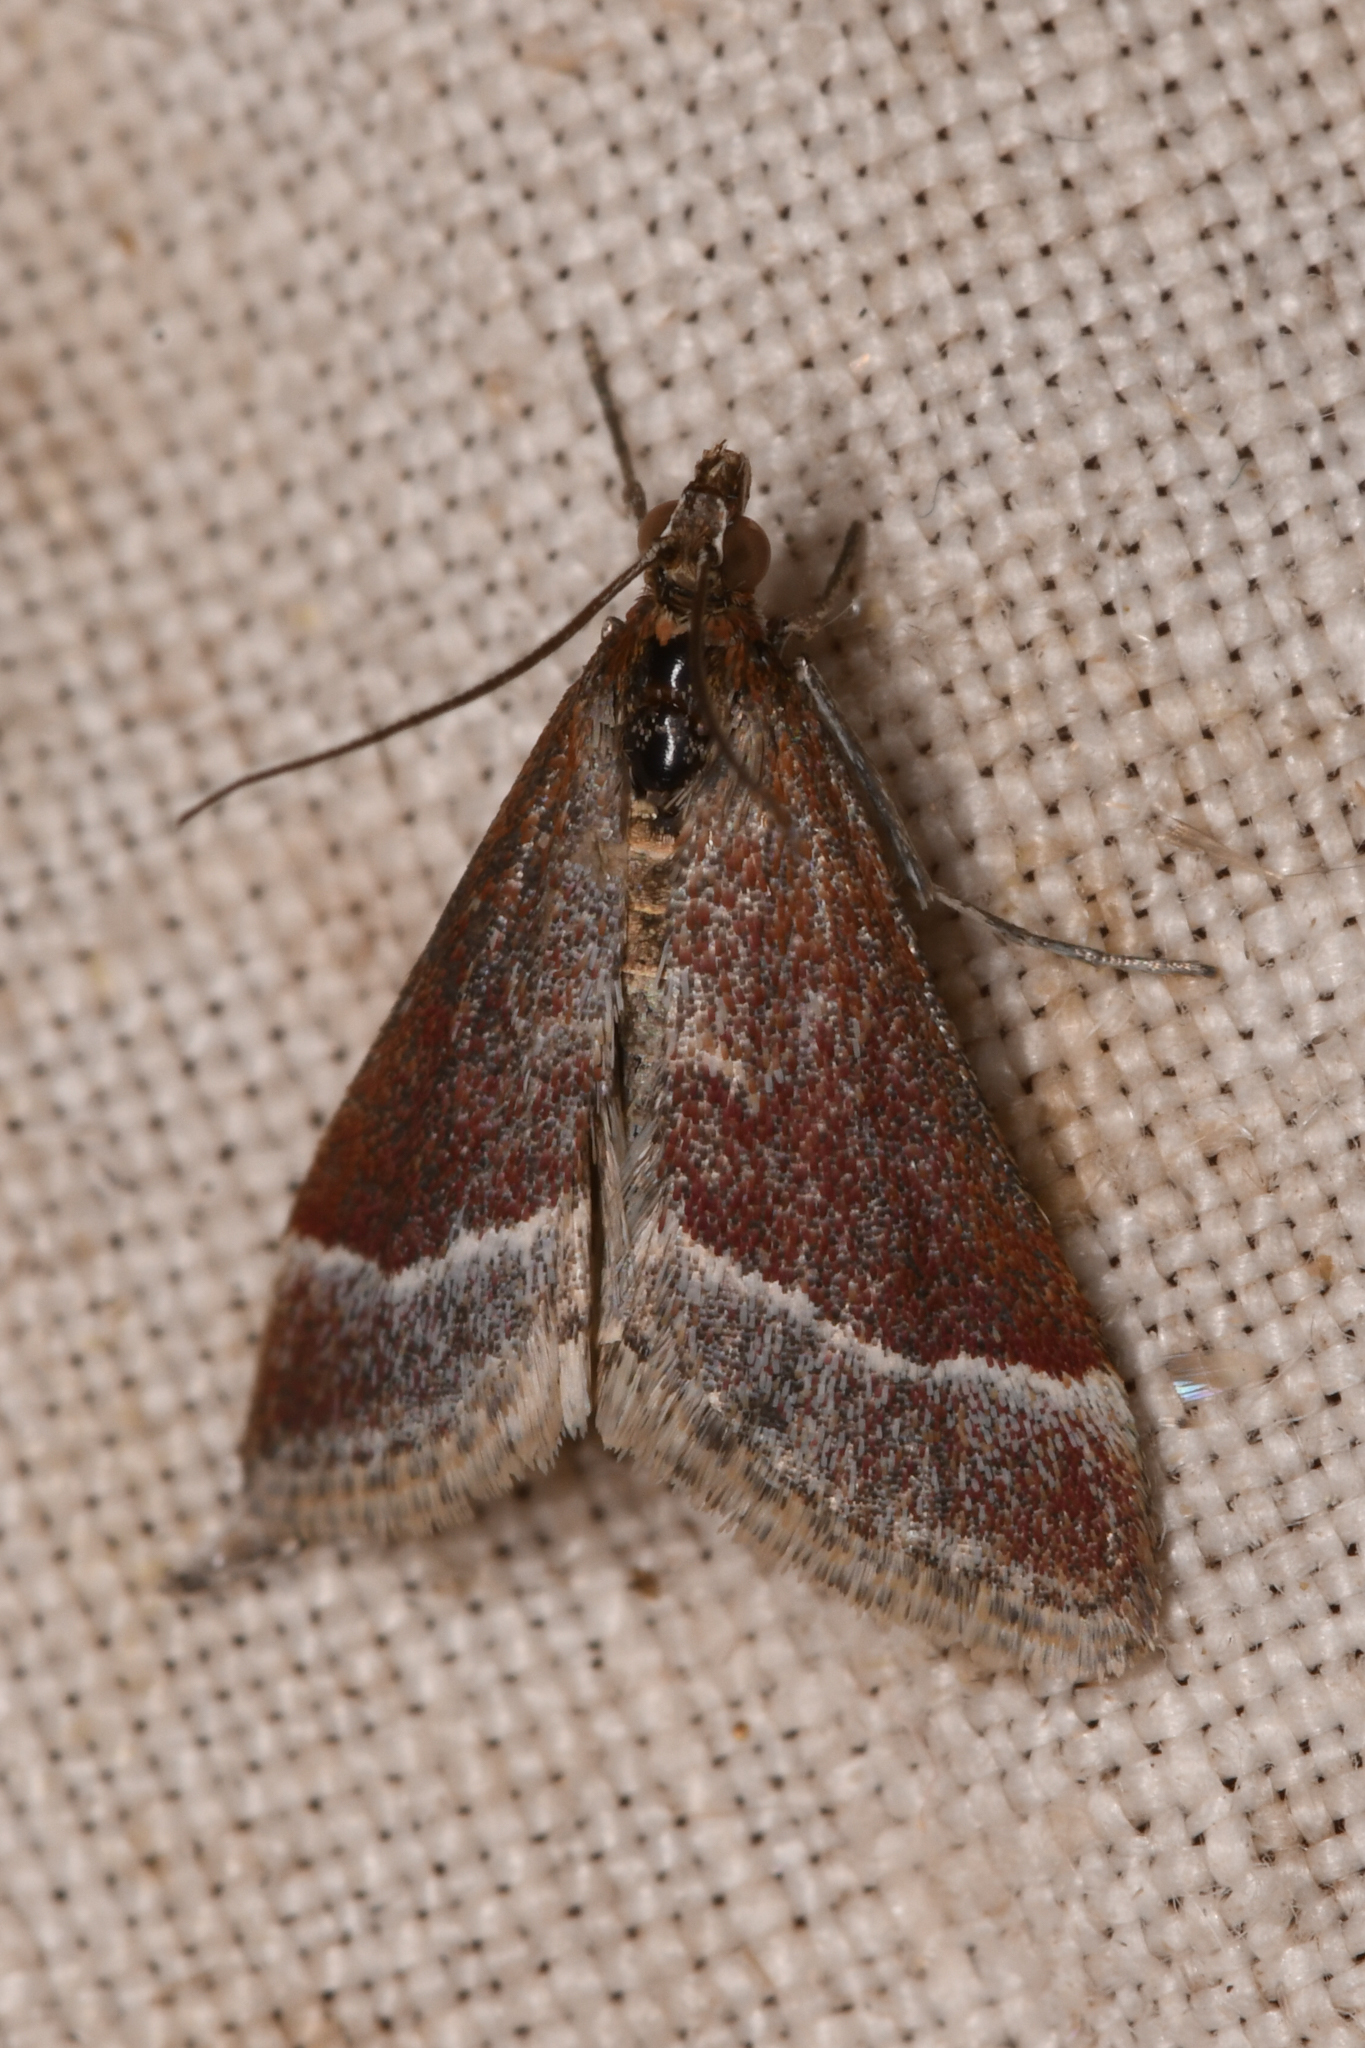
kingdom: Animalia
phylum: Arthropoda
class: Insecta
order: Lepidoptera
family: Crambidae
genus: Pyrausta
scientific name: Pyrausta lethalis
